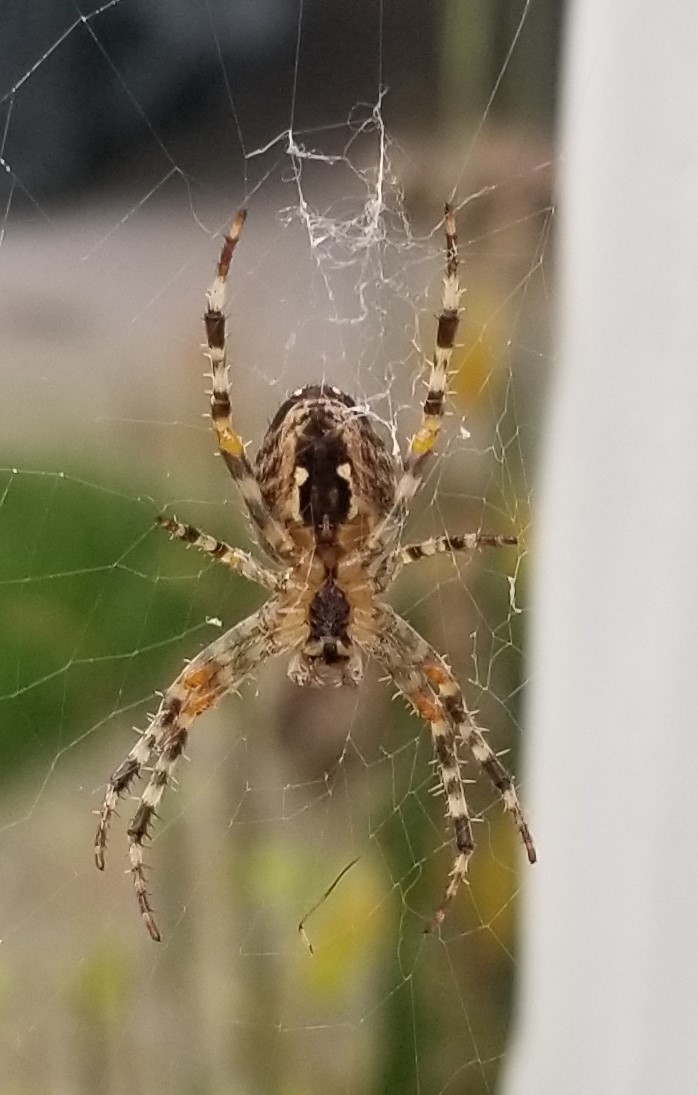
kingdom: Animalia
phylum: Arthropoda
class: Arachnida
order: Araneae
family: Araneidae
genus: Araneus
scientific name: Araneus diadematus
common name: Cross orbweaver
